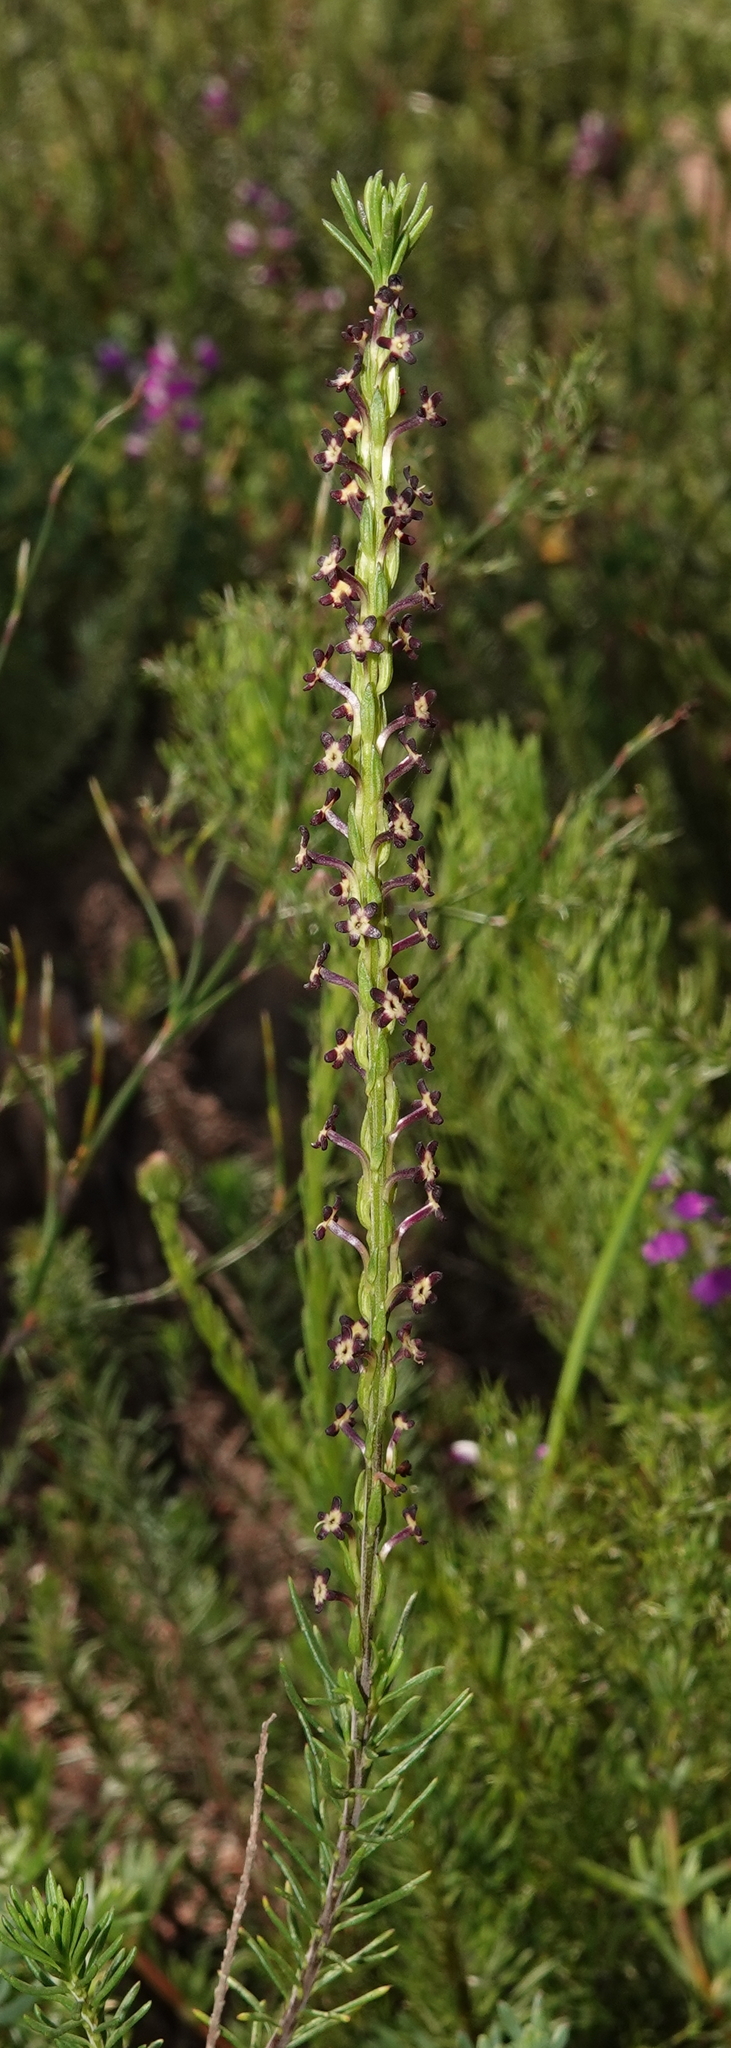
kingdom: Plantae
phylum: Tracheophyta
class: Magnoliopsida
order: Lamiales
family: Scrophulariaceae
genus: Microdon
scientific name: Microdon dubius
